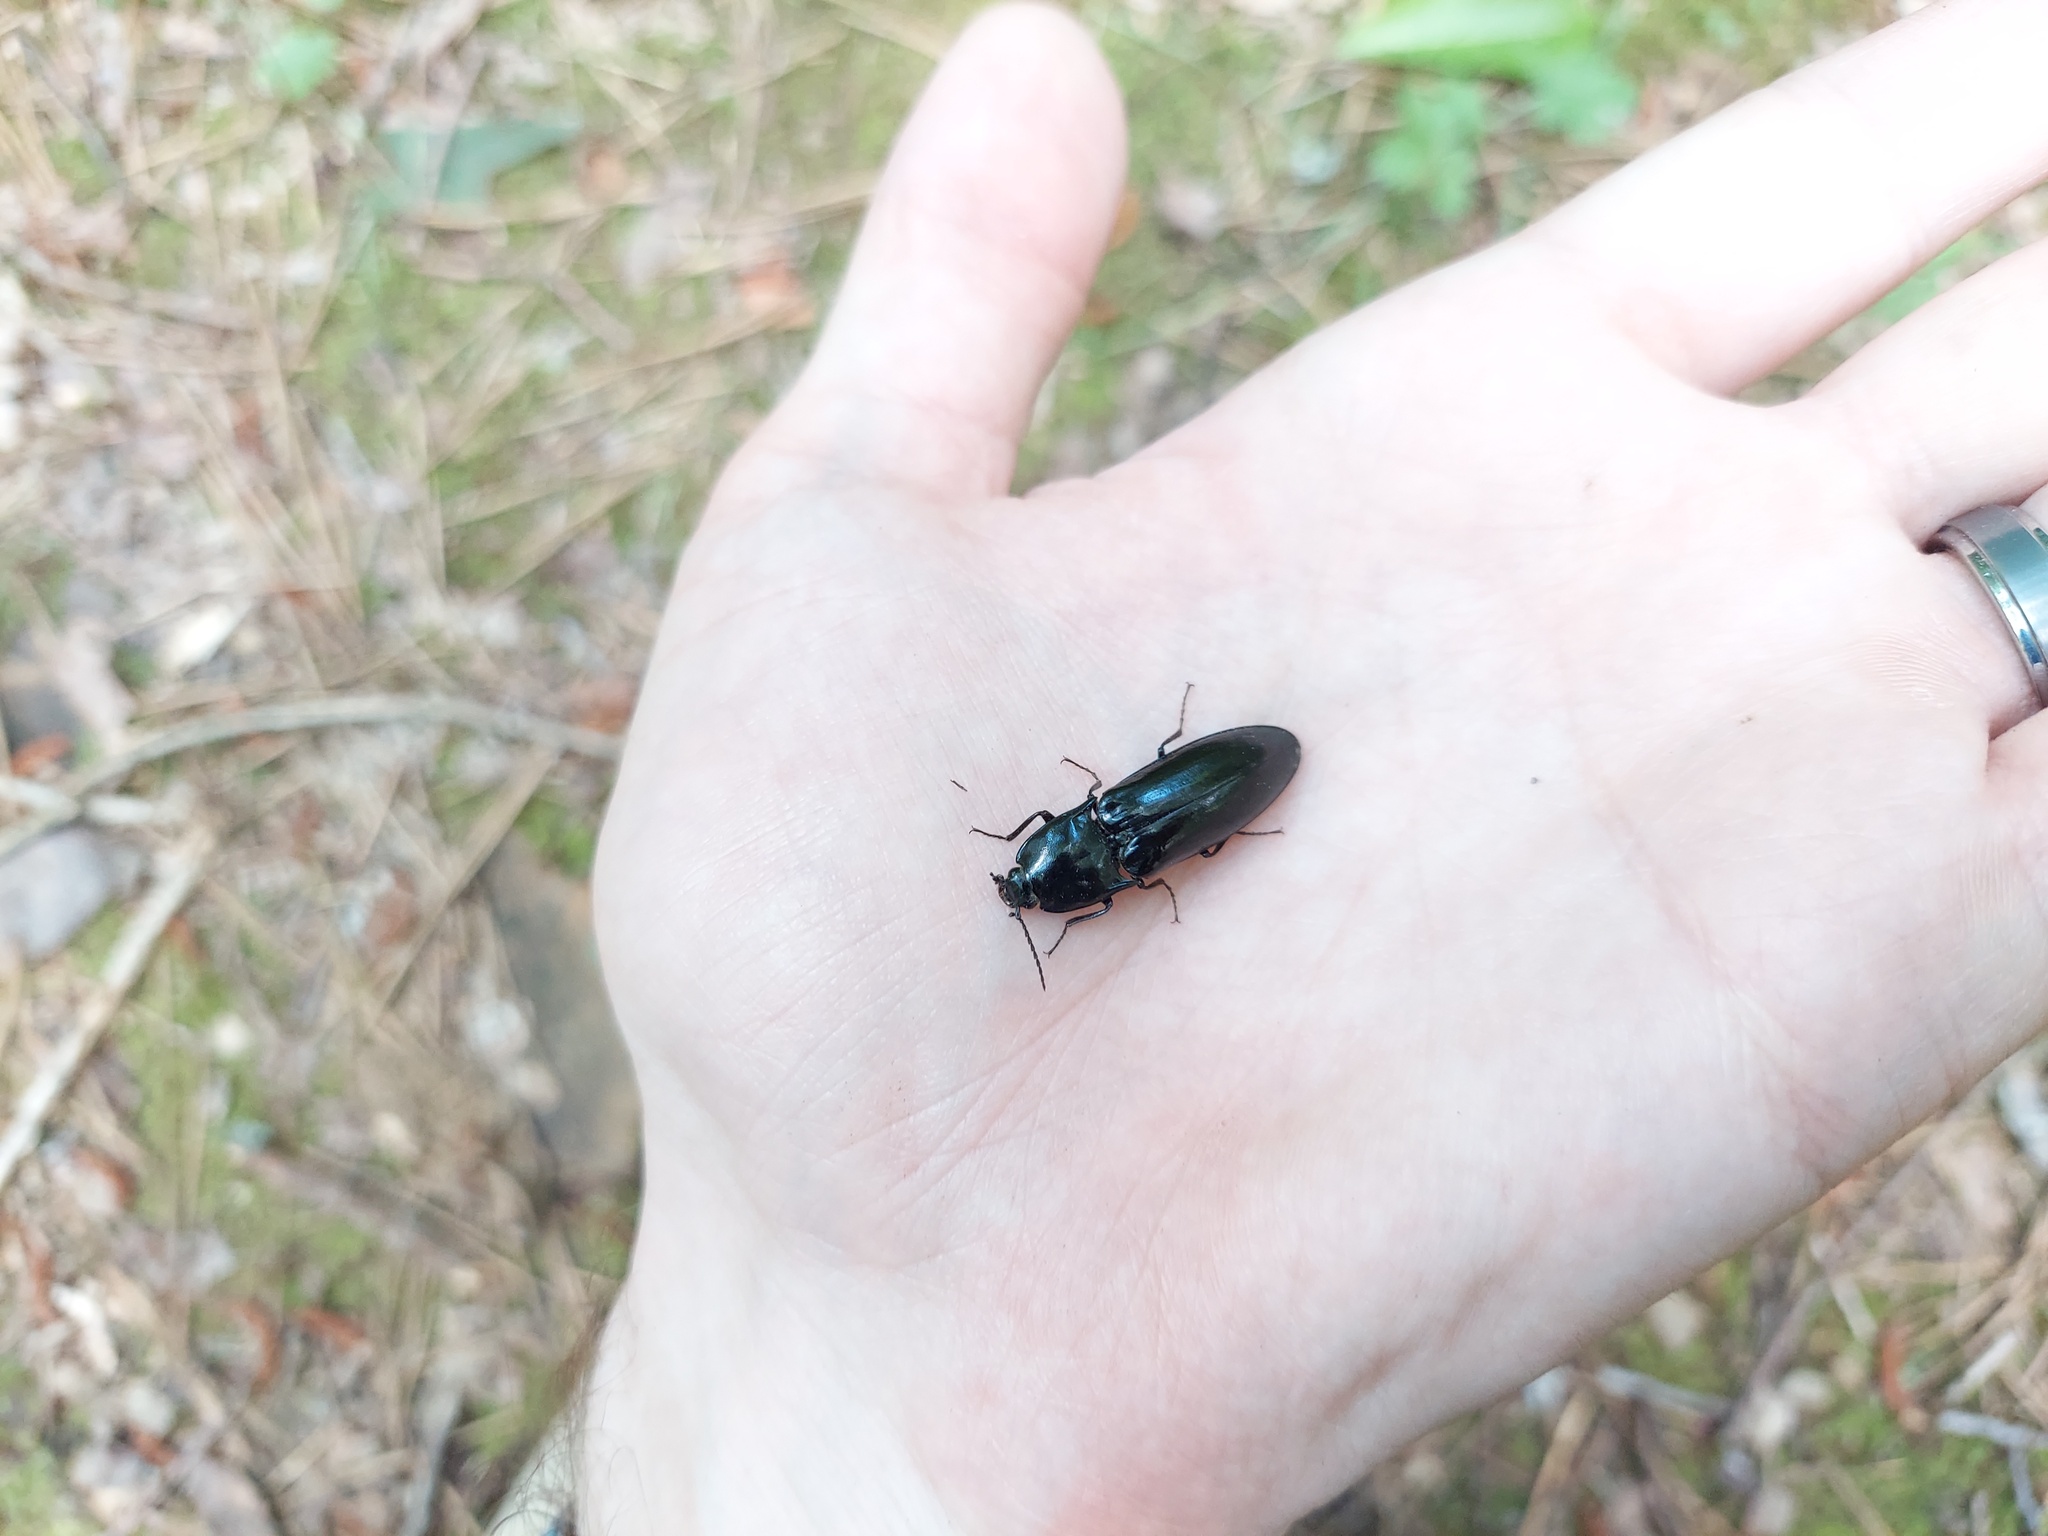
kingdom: Animalia
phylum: Arthropoda
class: Insecta
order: Coleoptera
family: Elateridae
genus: Melanactes
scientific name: Melanactes piceus
